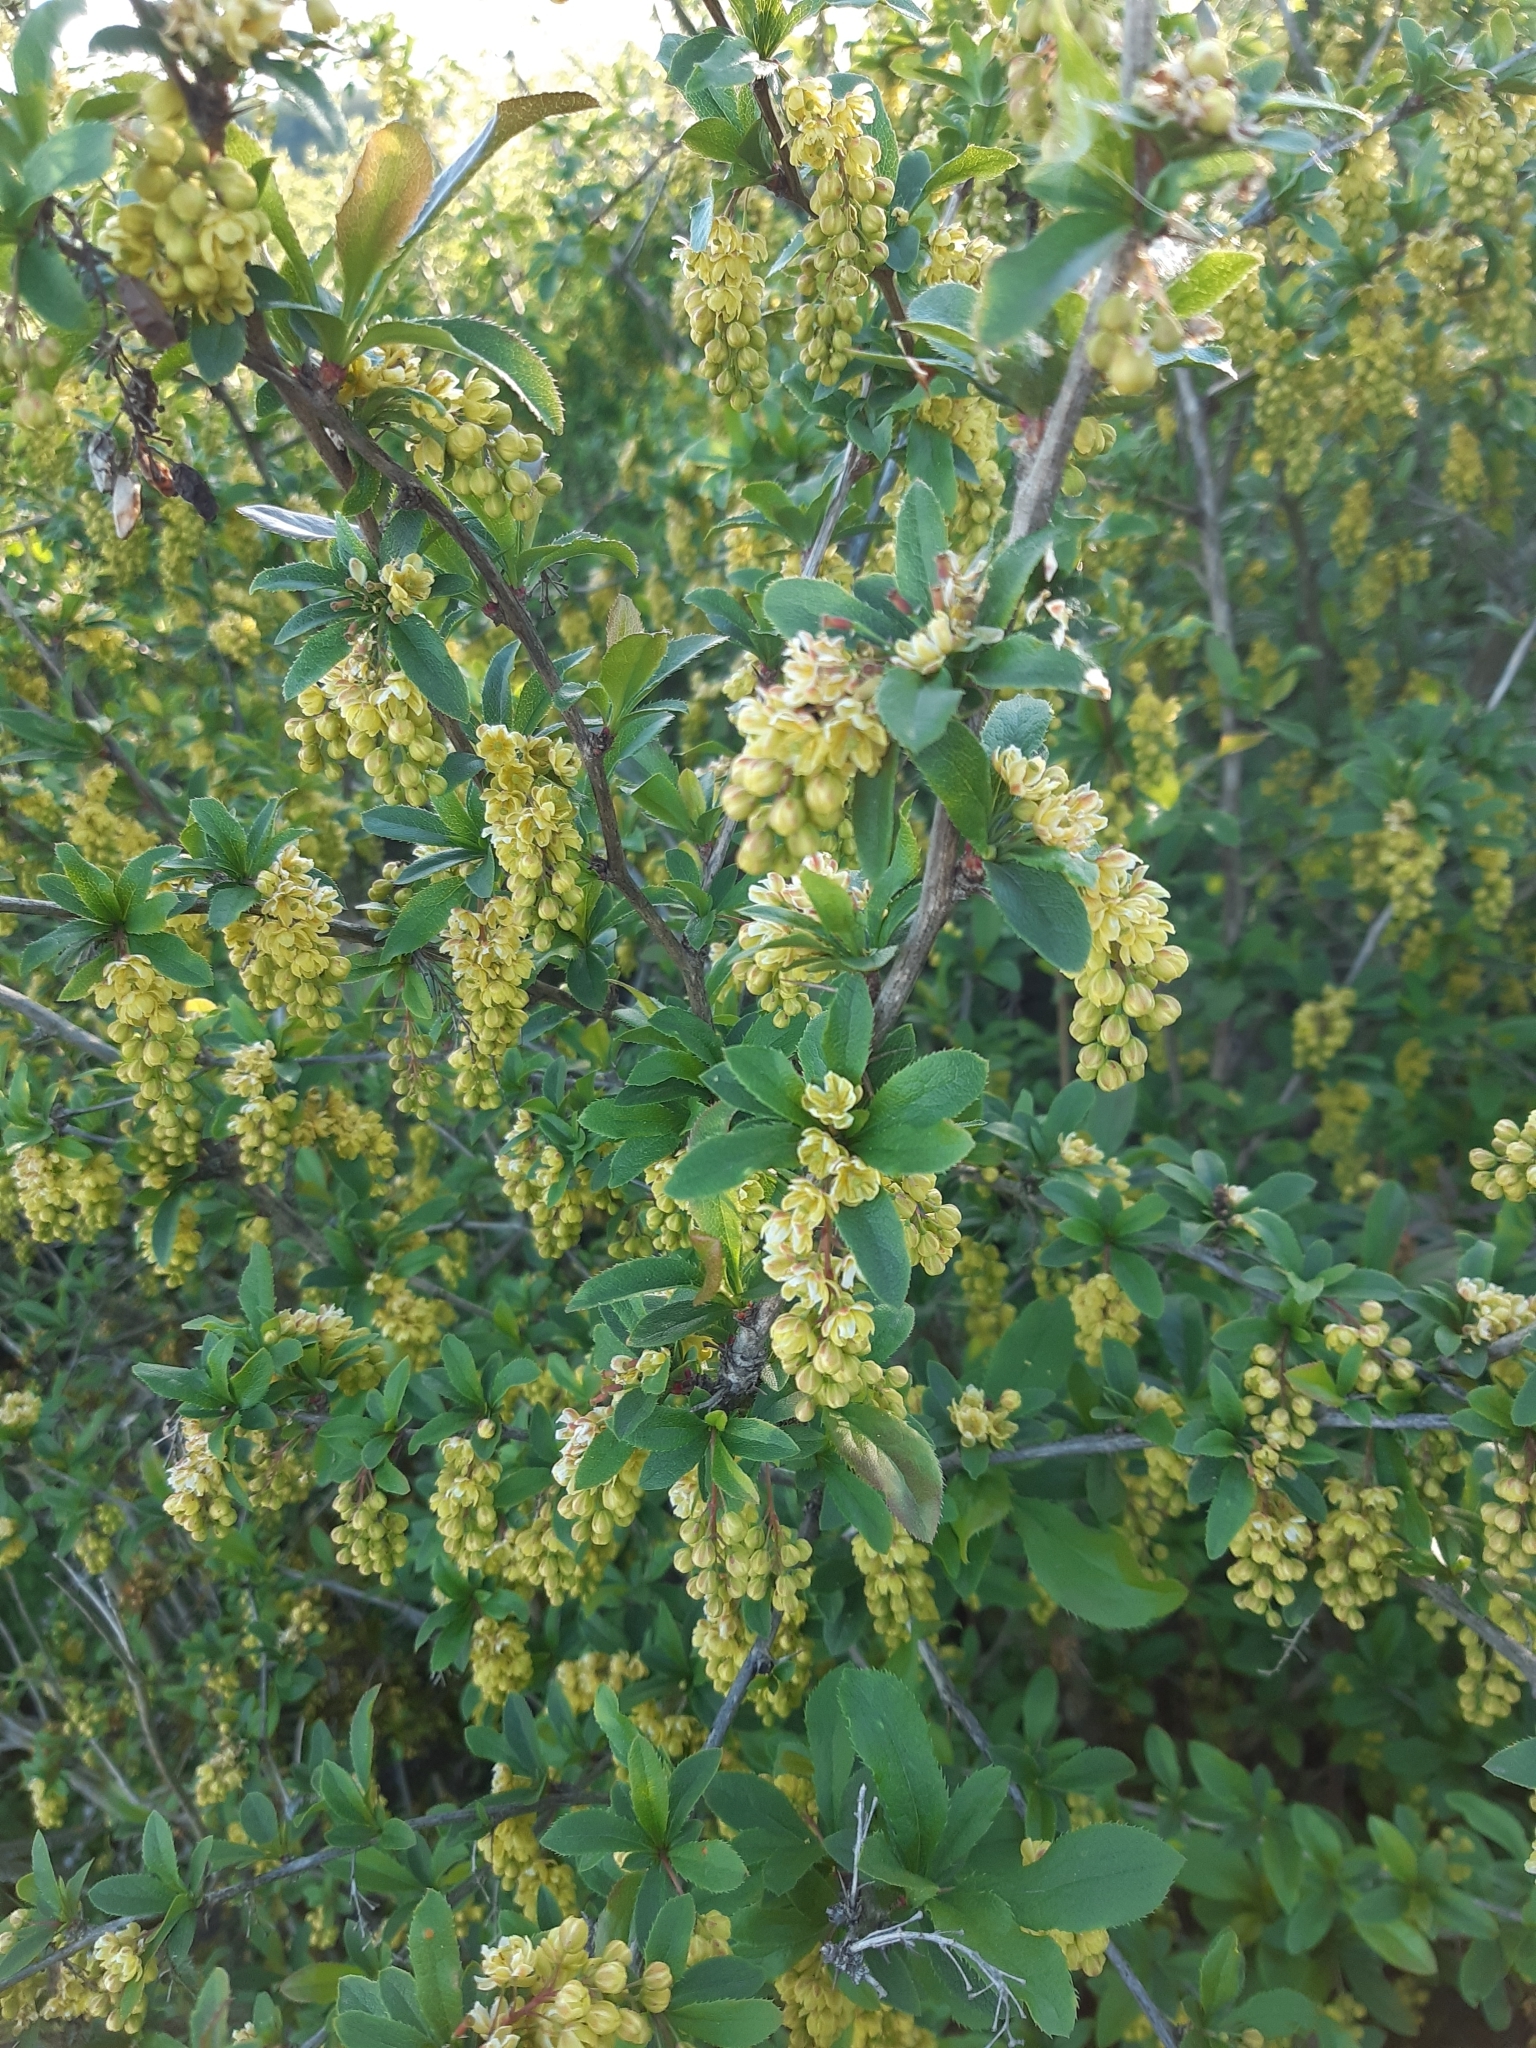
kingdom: Plantae
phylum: Tracheophyta
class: Magnoliopsida
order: Ranunculales
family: Berberidaceae
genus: Berberis
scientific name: Berberis vulgaris
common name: Barberry
